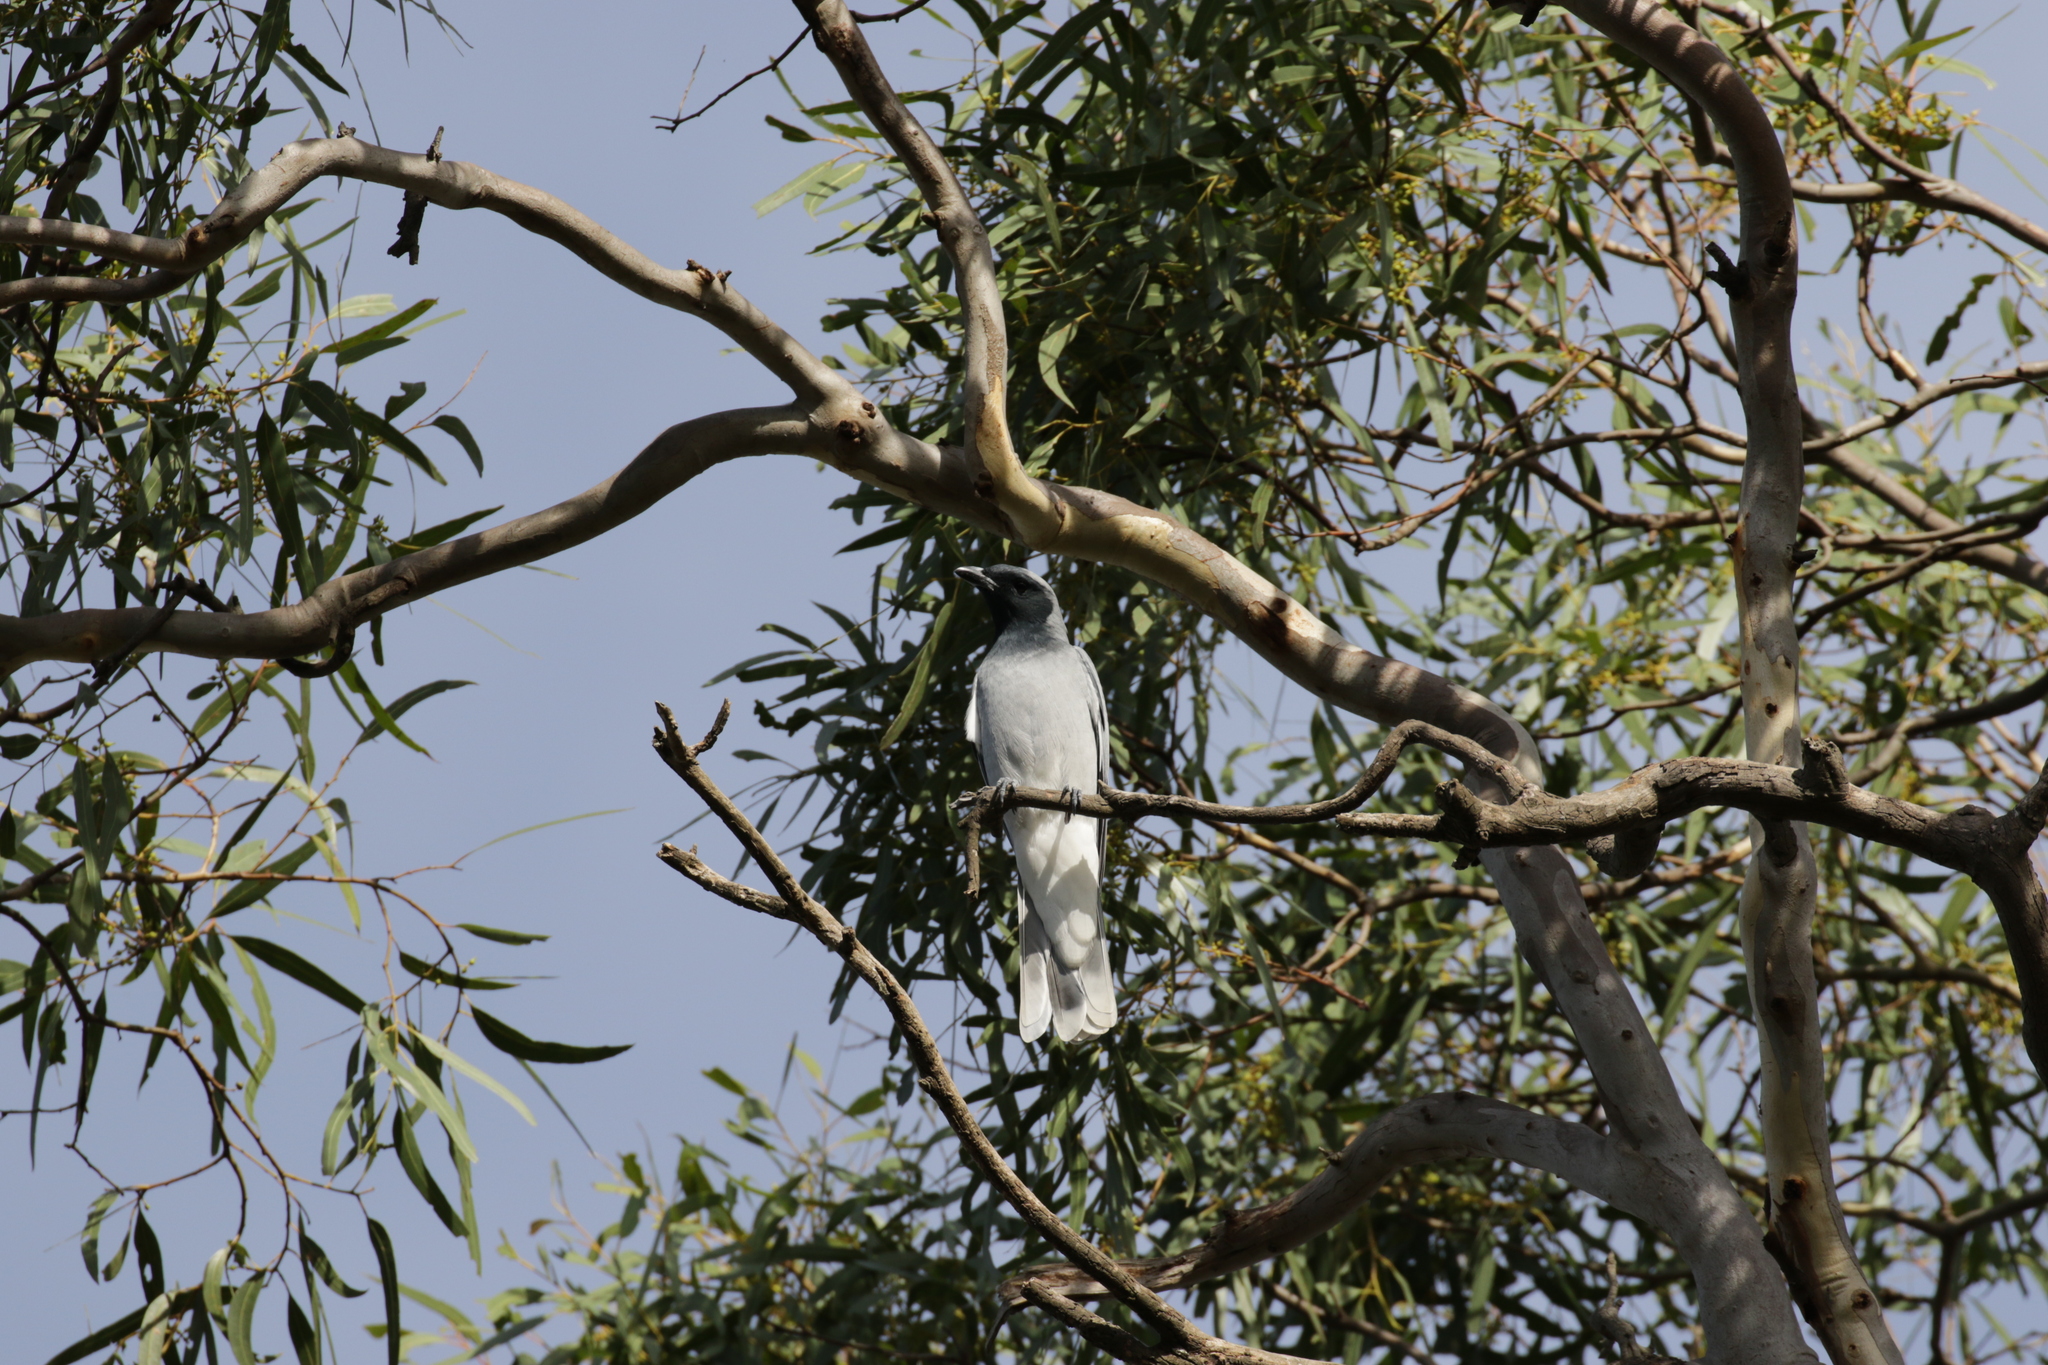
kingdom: Animalia
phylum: Chordata
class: Aves
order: Passeriformes
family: Campephagidae
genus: Coracina
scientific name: Coracina novaehollandiae
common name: Black-faced cuckooshrike
